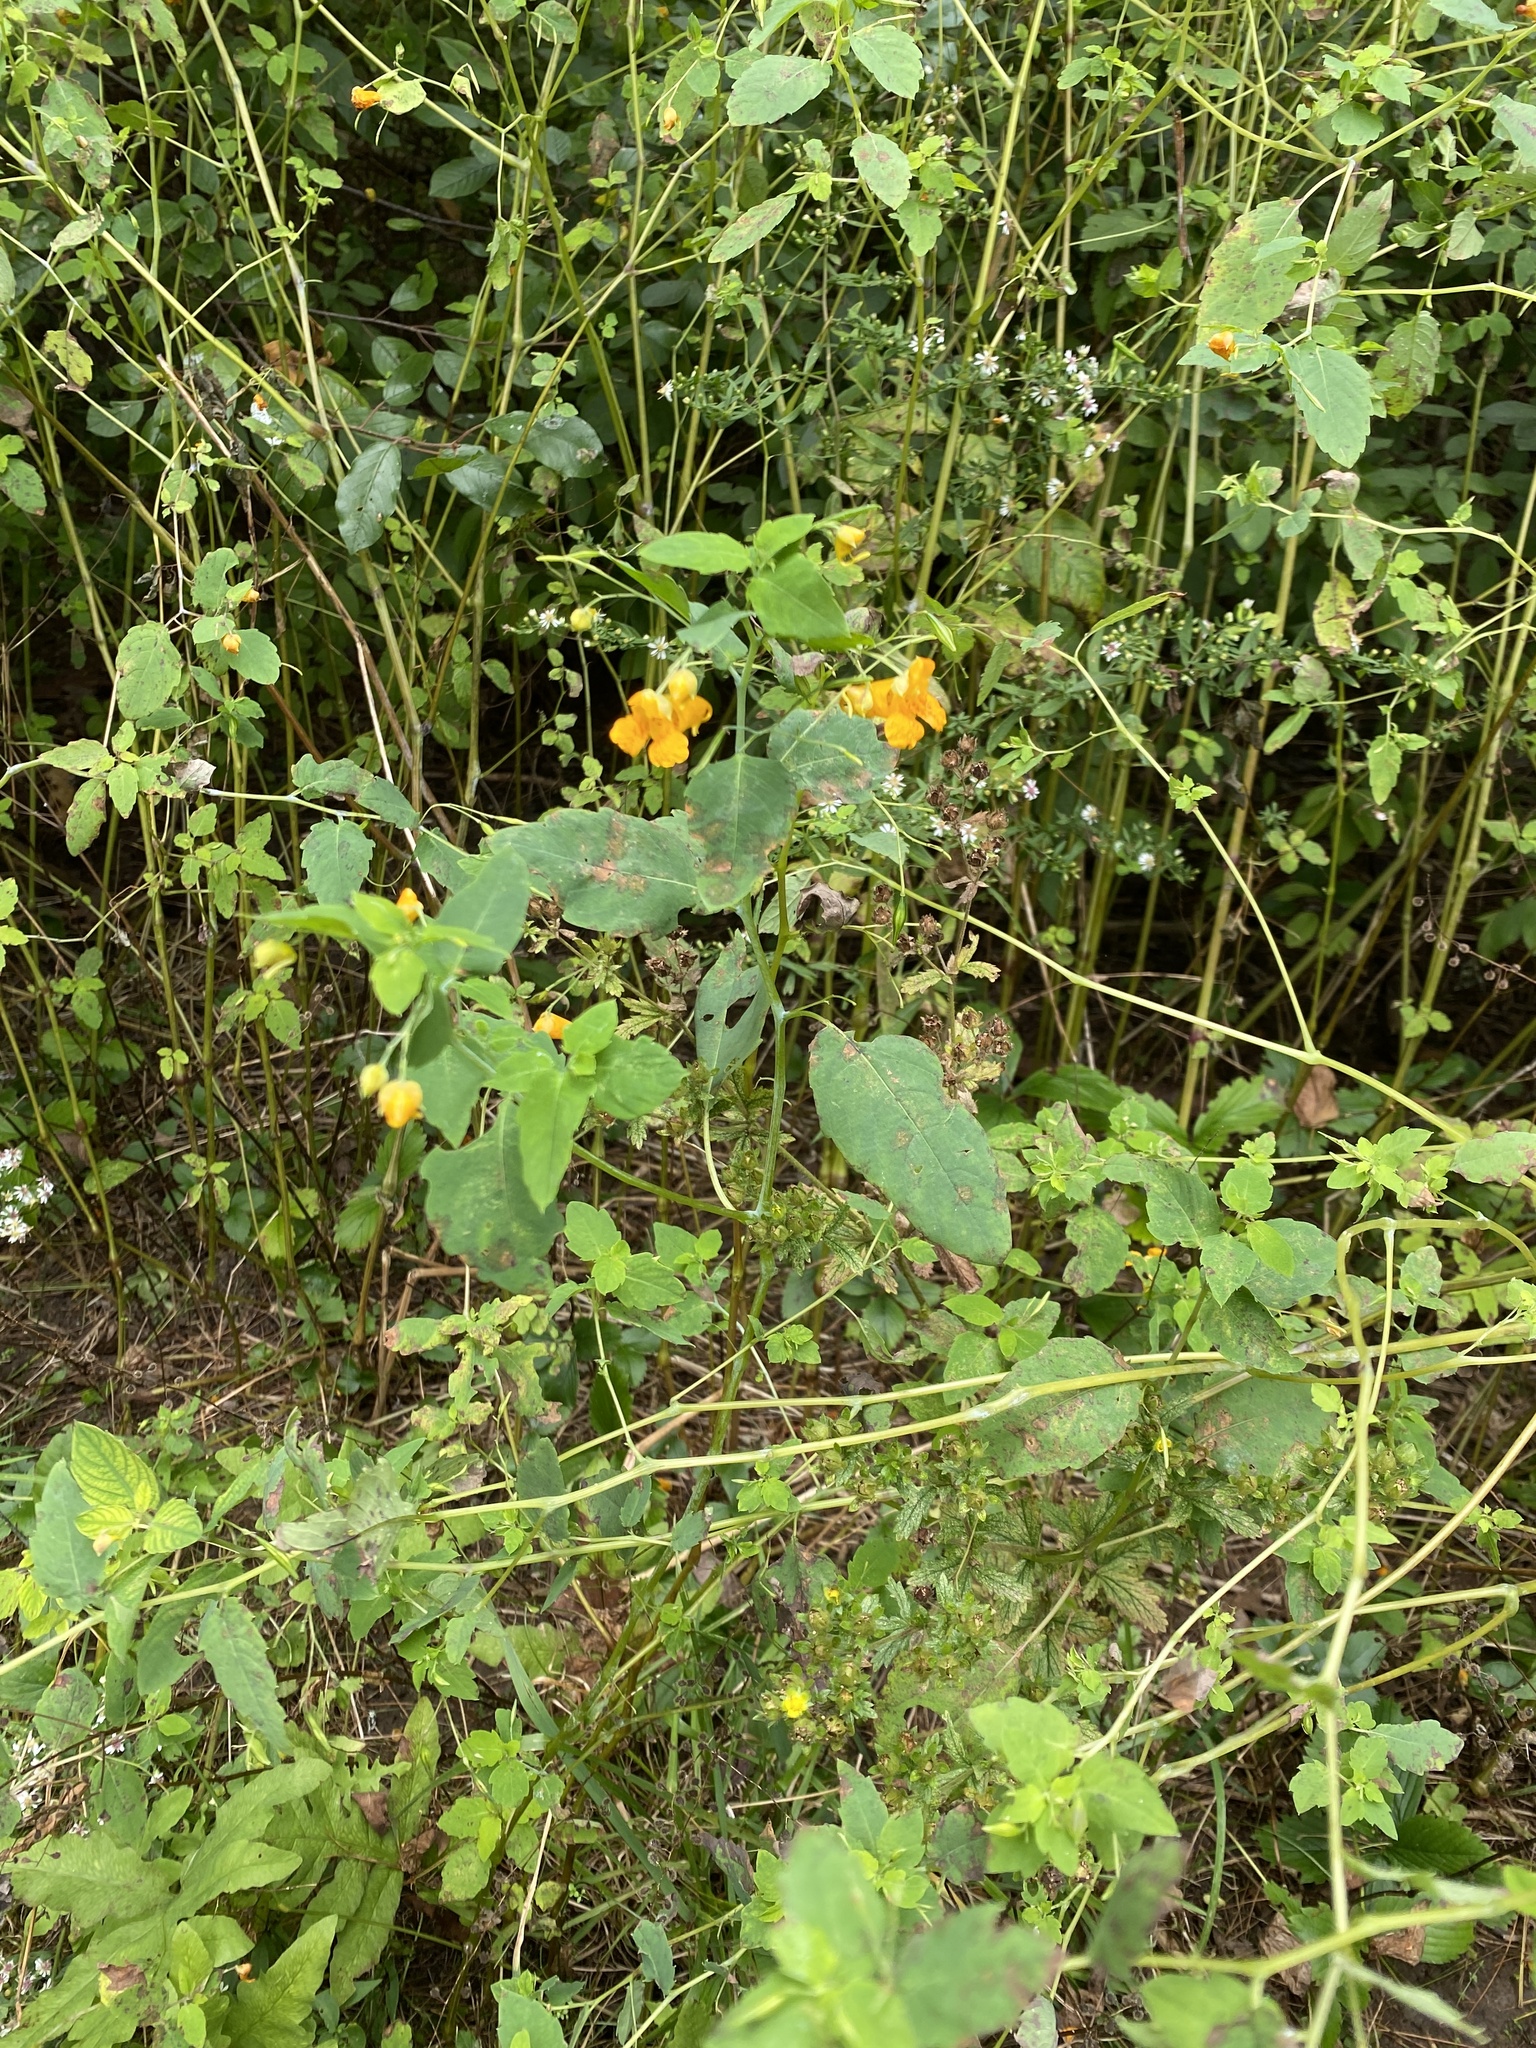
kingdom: Plantae
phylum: Tracheophyta
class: Magnoliopsida
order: Ericales
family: Balsaminaceae
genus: Impatiens
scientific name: Impatiens capensis
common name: Orange balsam
